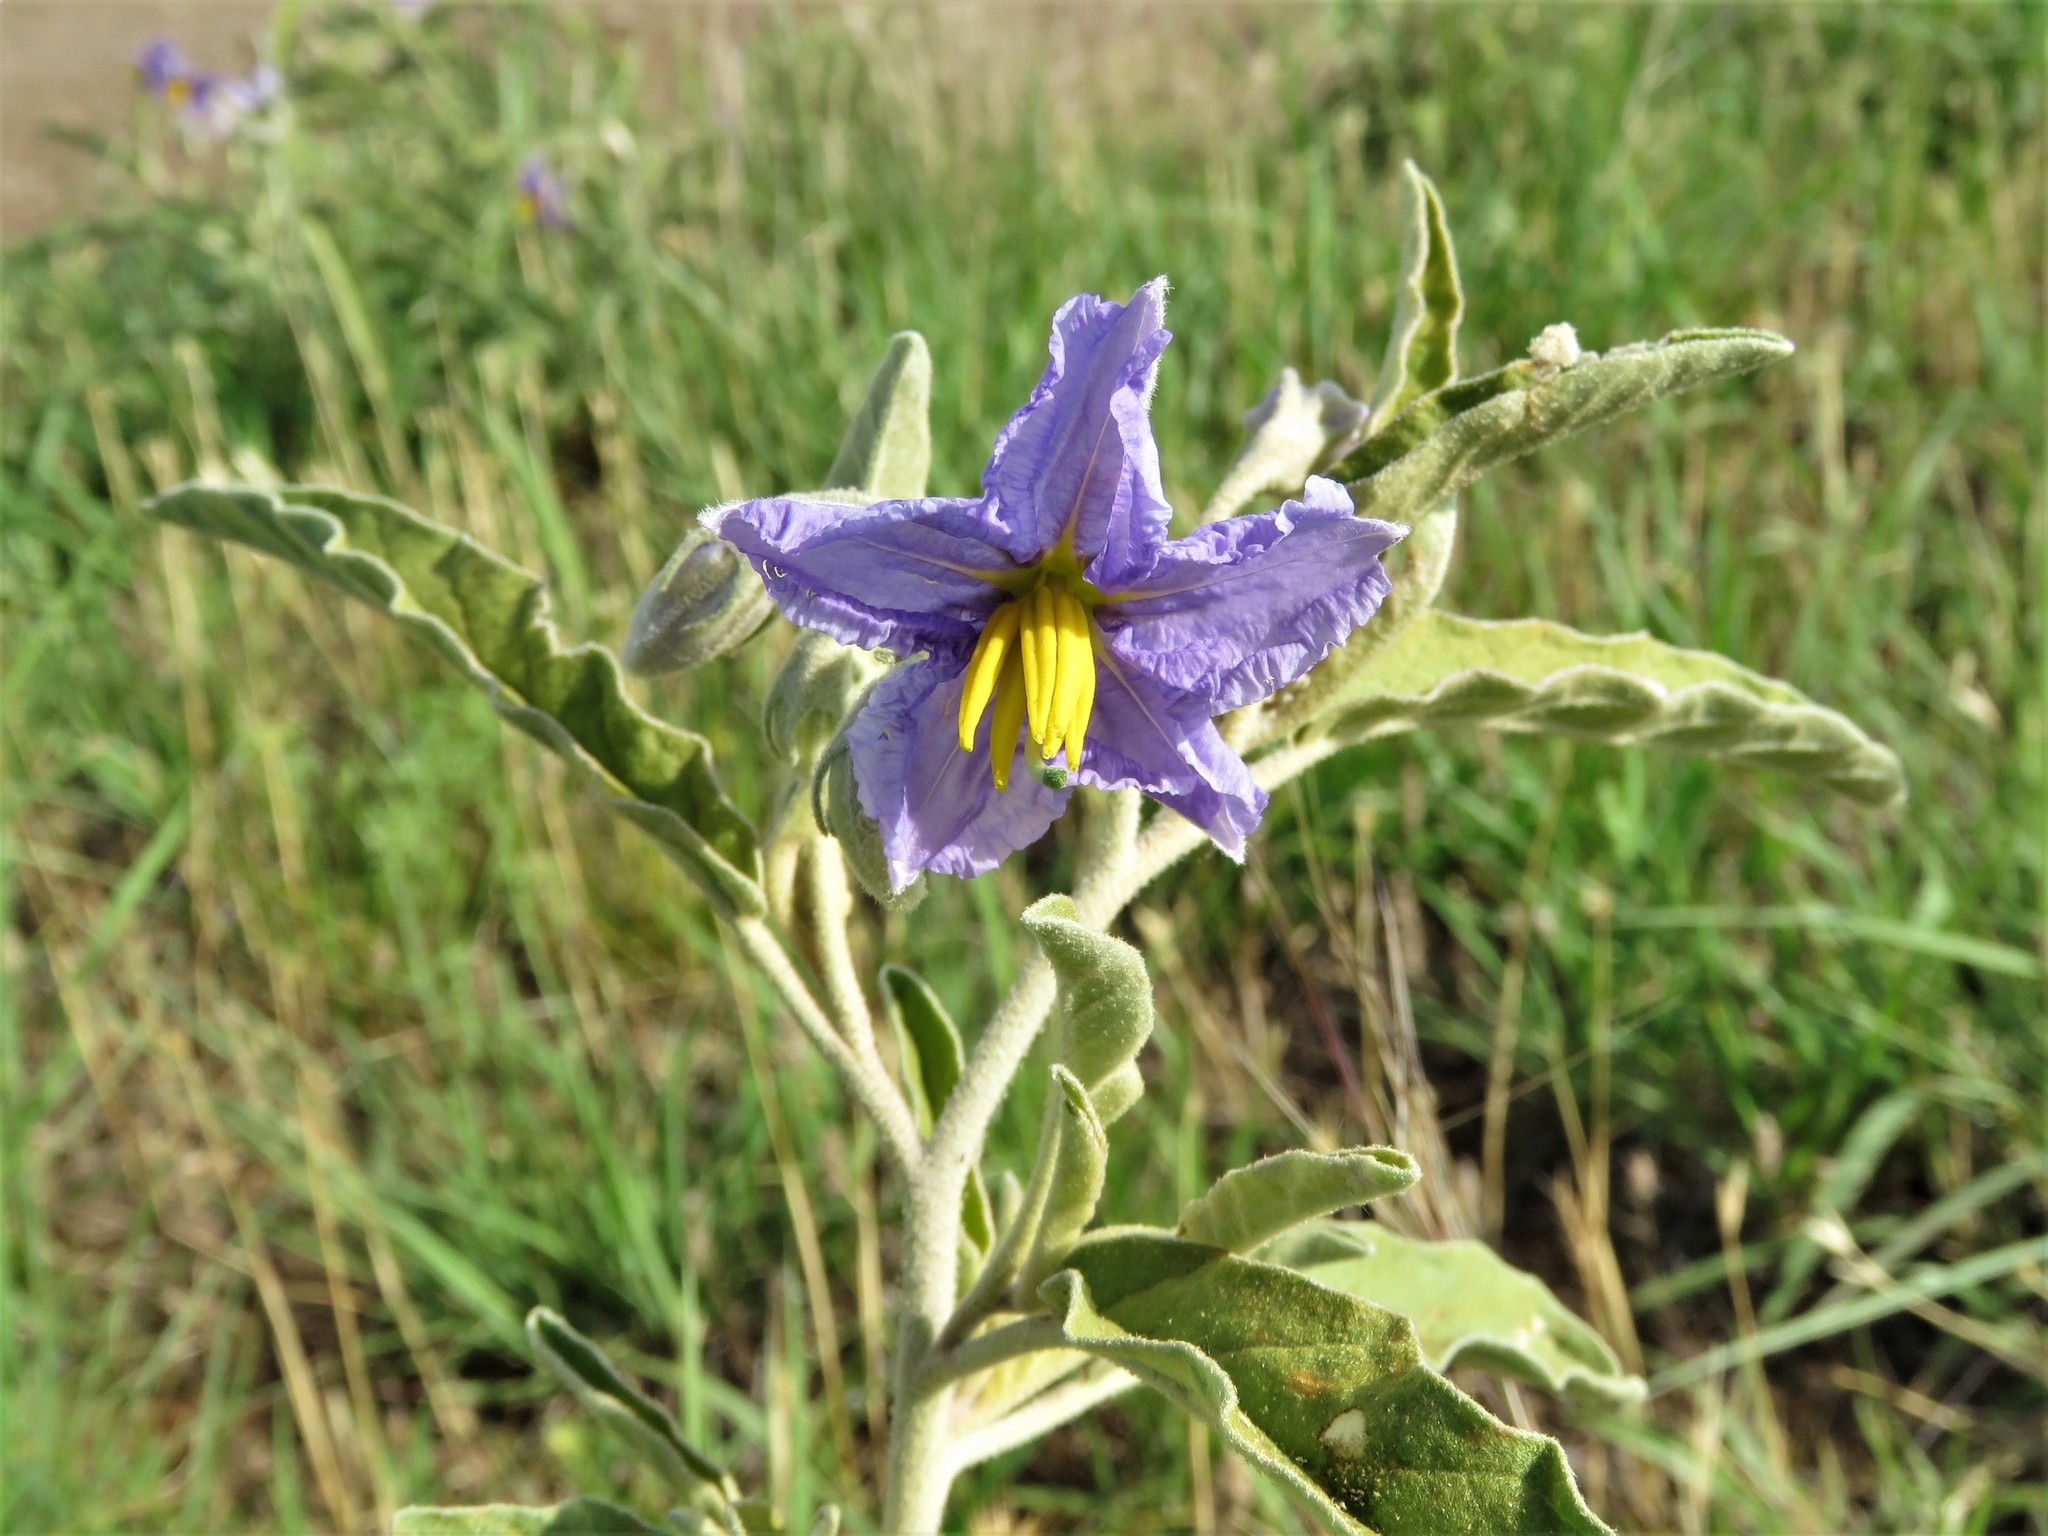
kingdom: Plantae
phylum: Tracheophyta
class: Magnoliopsida
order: Solanales
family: Solanaceae
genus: Solanum
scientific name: Solanum elaeagnifolium
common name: Silverleaf nightshade
